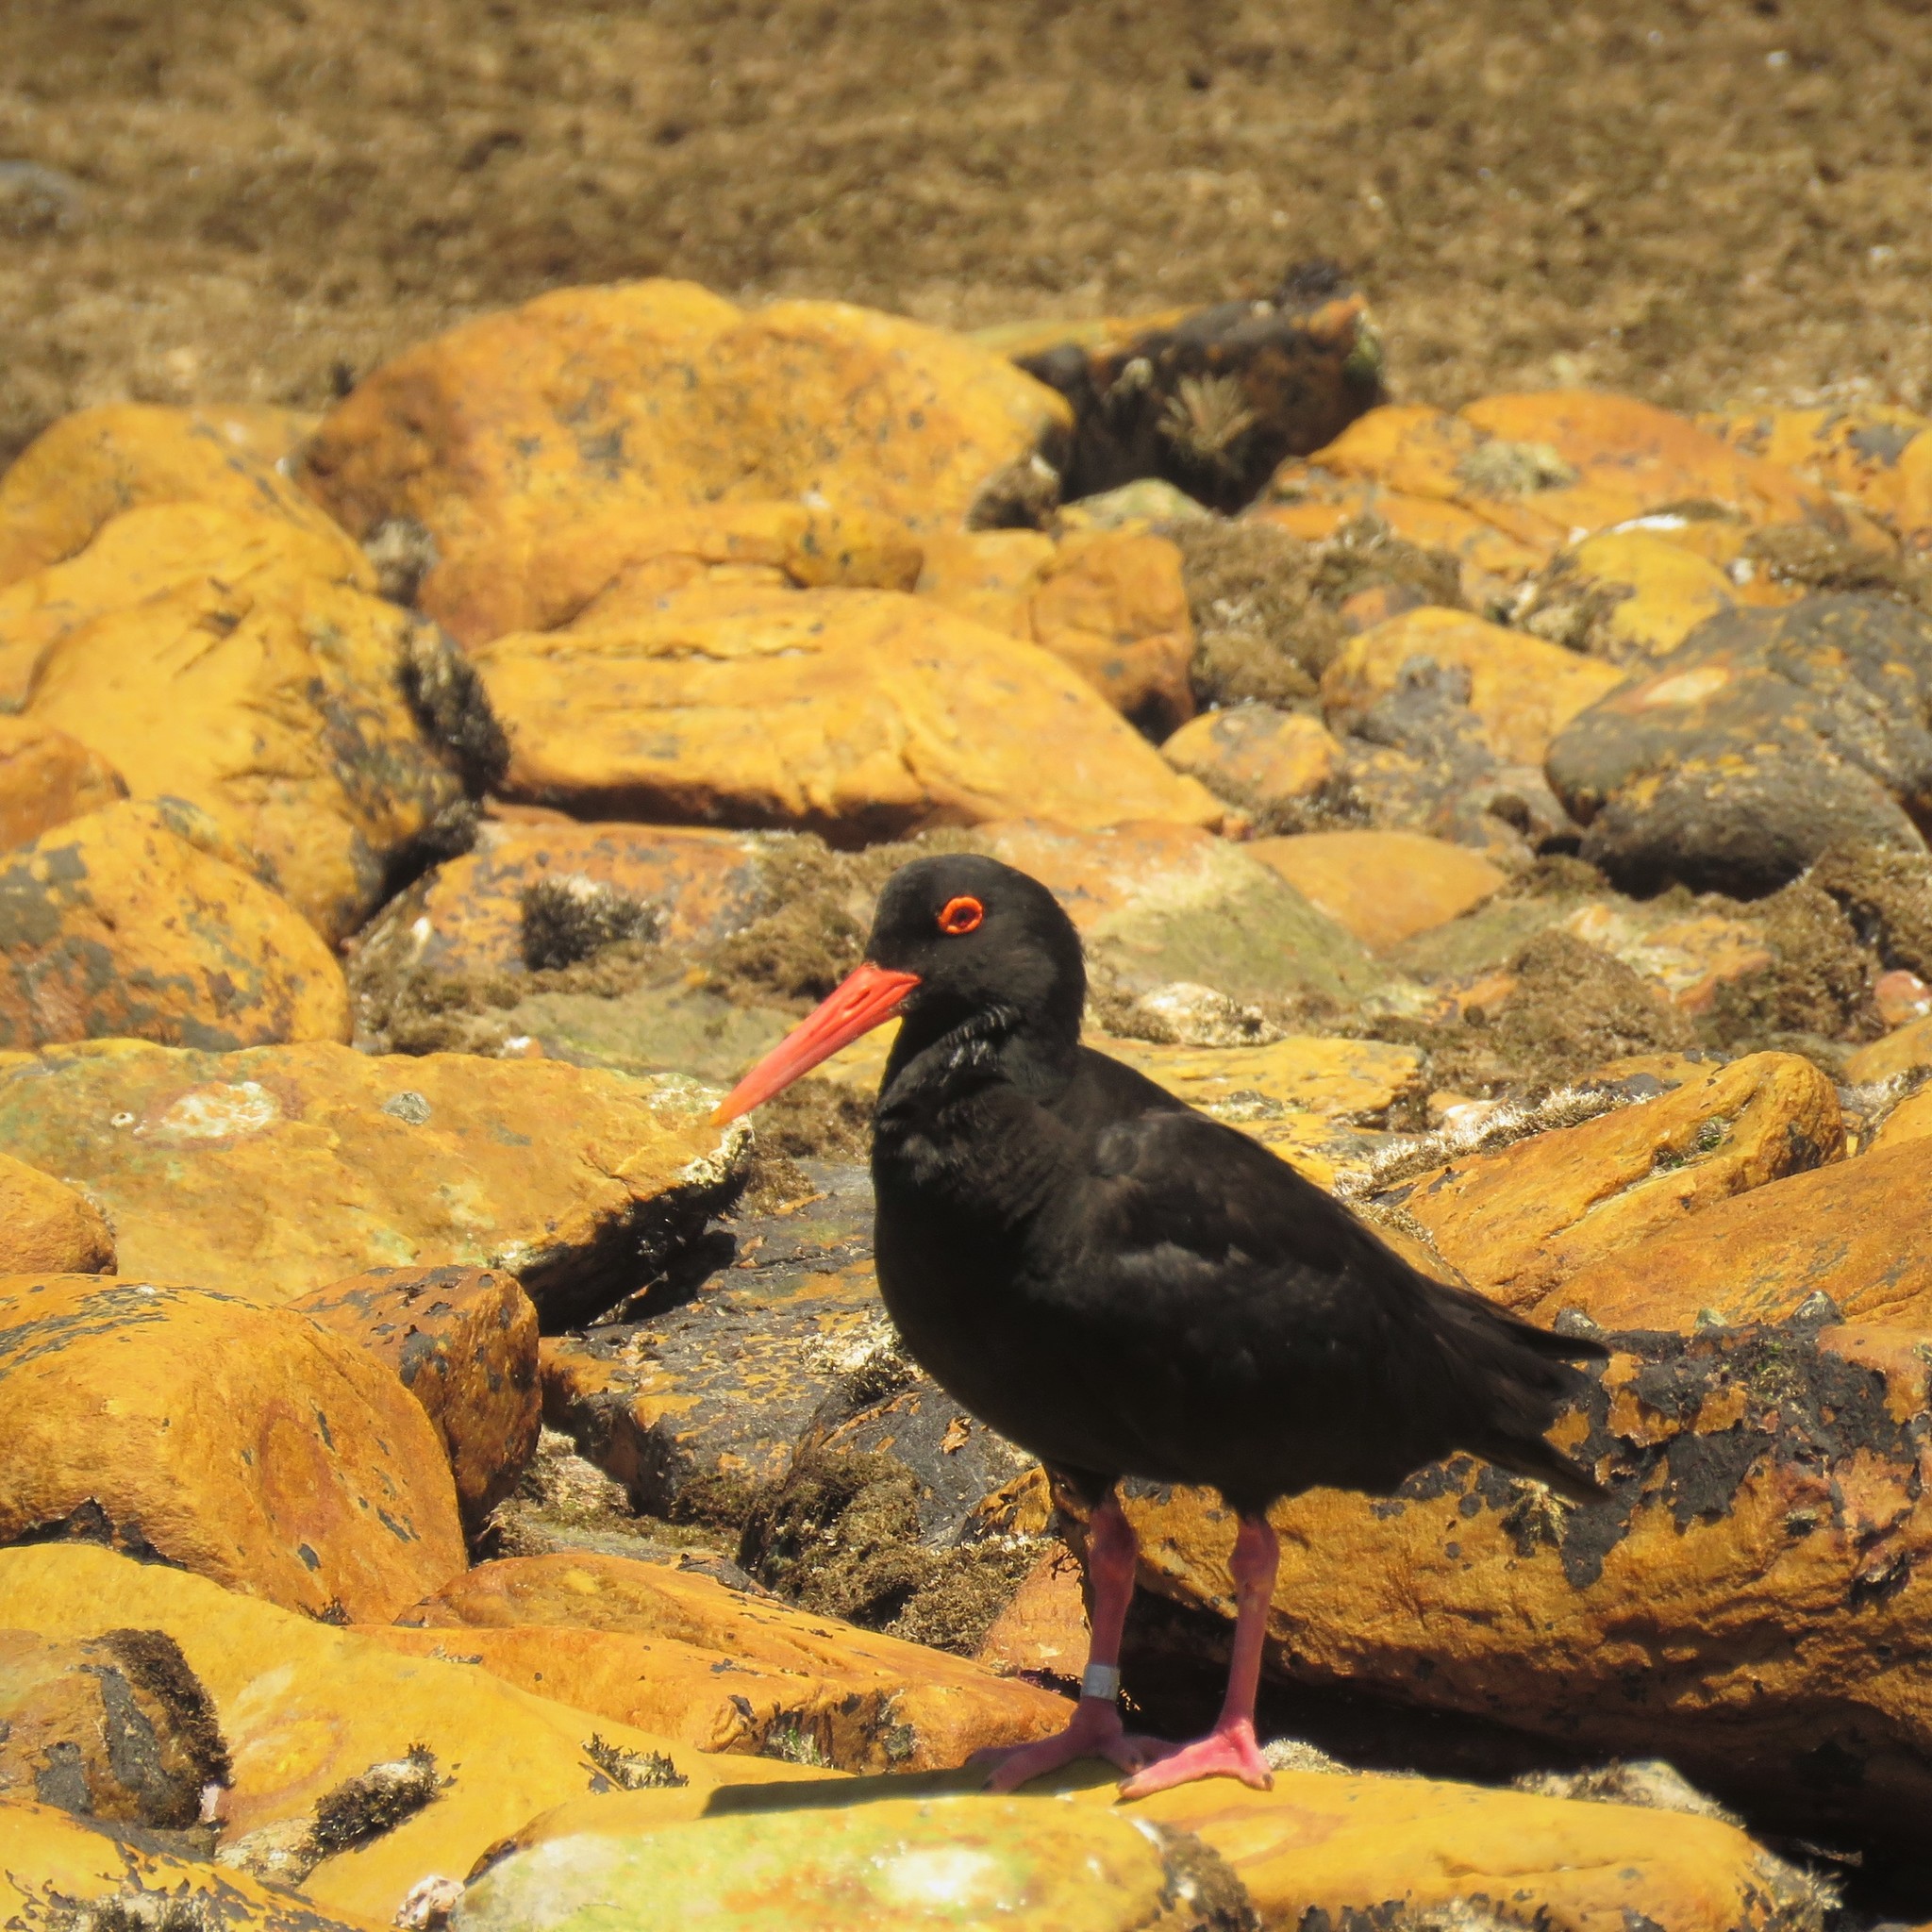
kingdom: Animalia
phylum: Chordata
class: Aves
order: Charadriiformes
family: Haematopodidae
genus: Haematopus
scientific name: Haematopus moquini
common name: African oystercatcher
